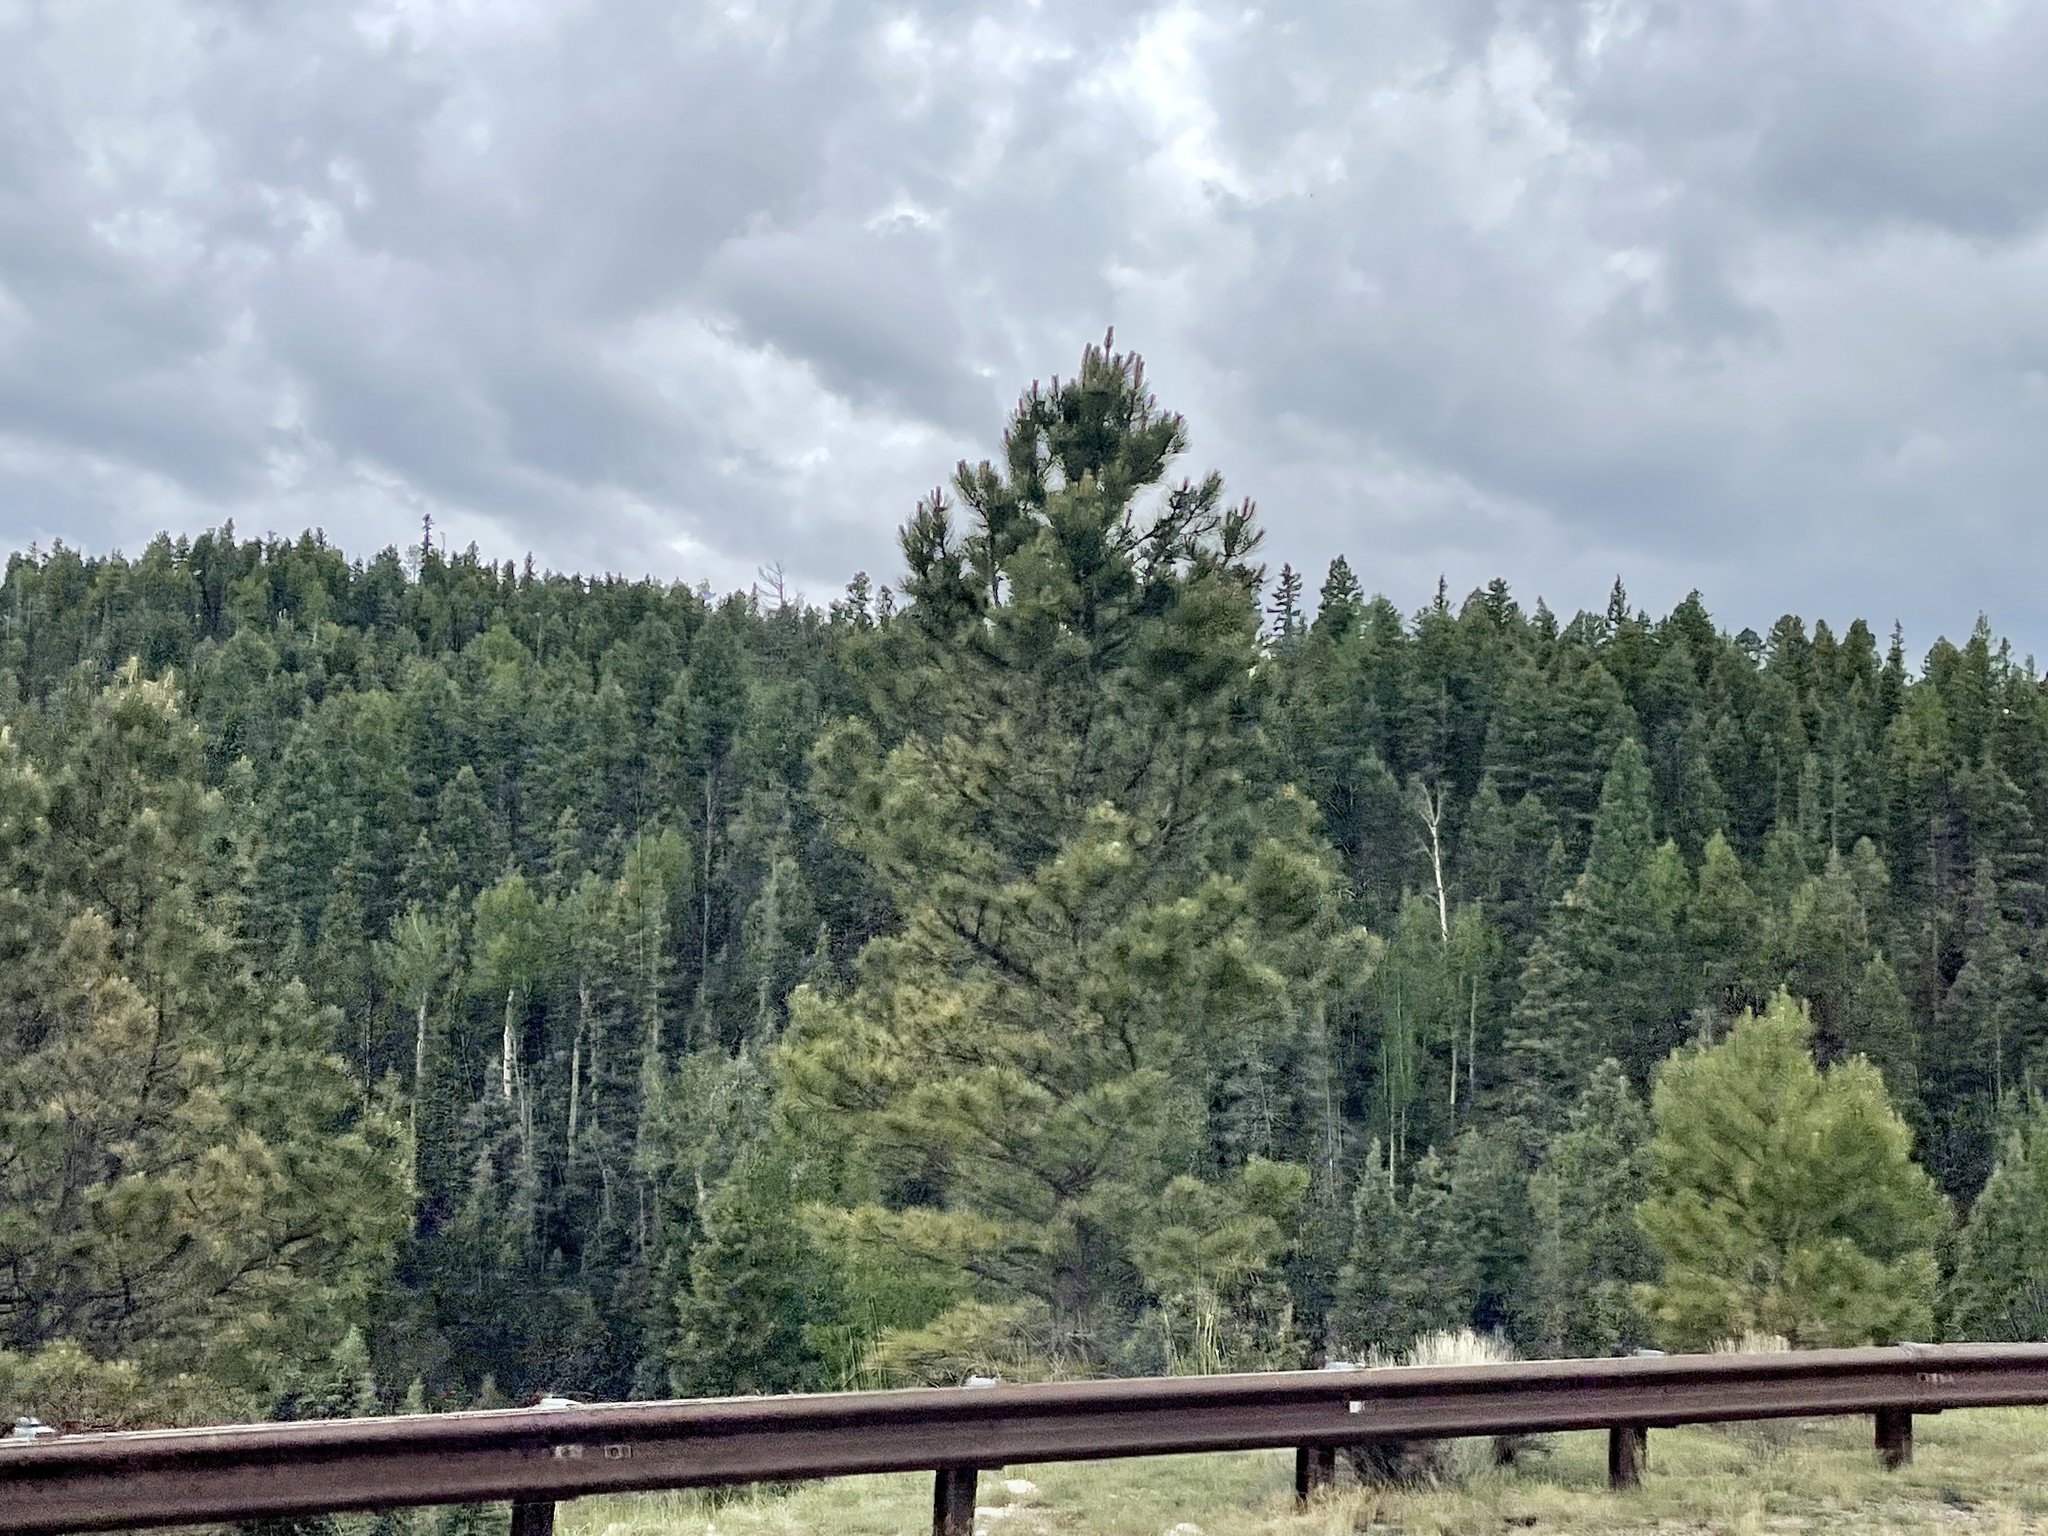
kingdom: Plantae
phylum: Tracheophyta
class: Pinopsida
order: Pinales
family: Pinaceae
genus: Pinus
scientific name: Pinus ponderosa
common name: Western yellow-pine
